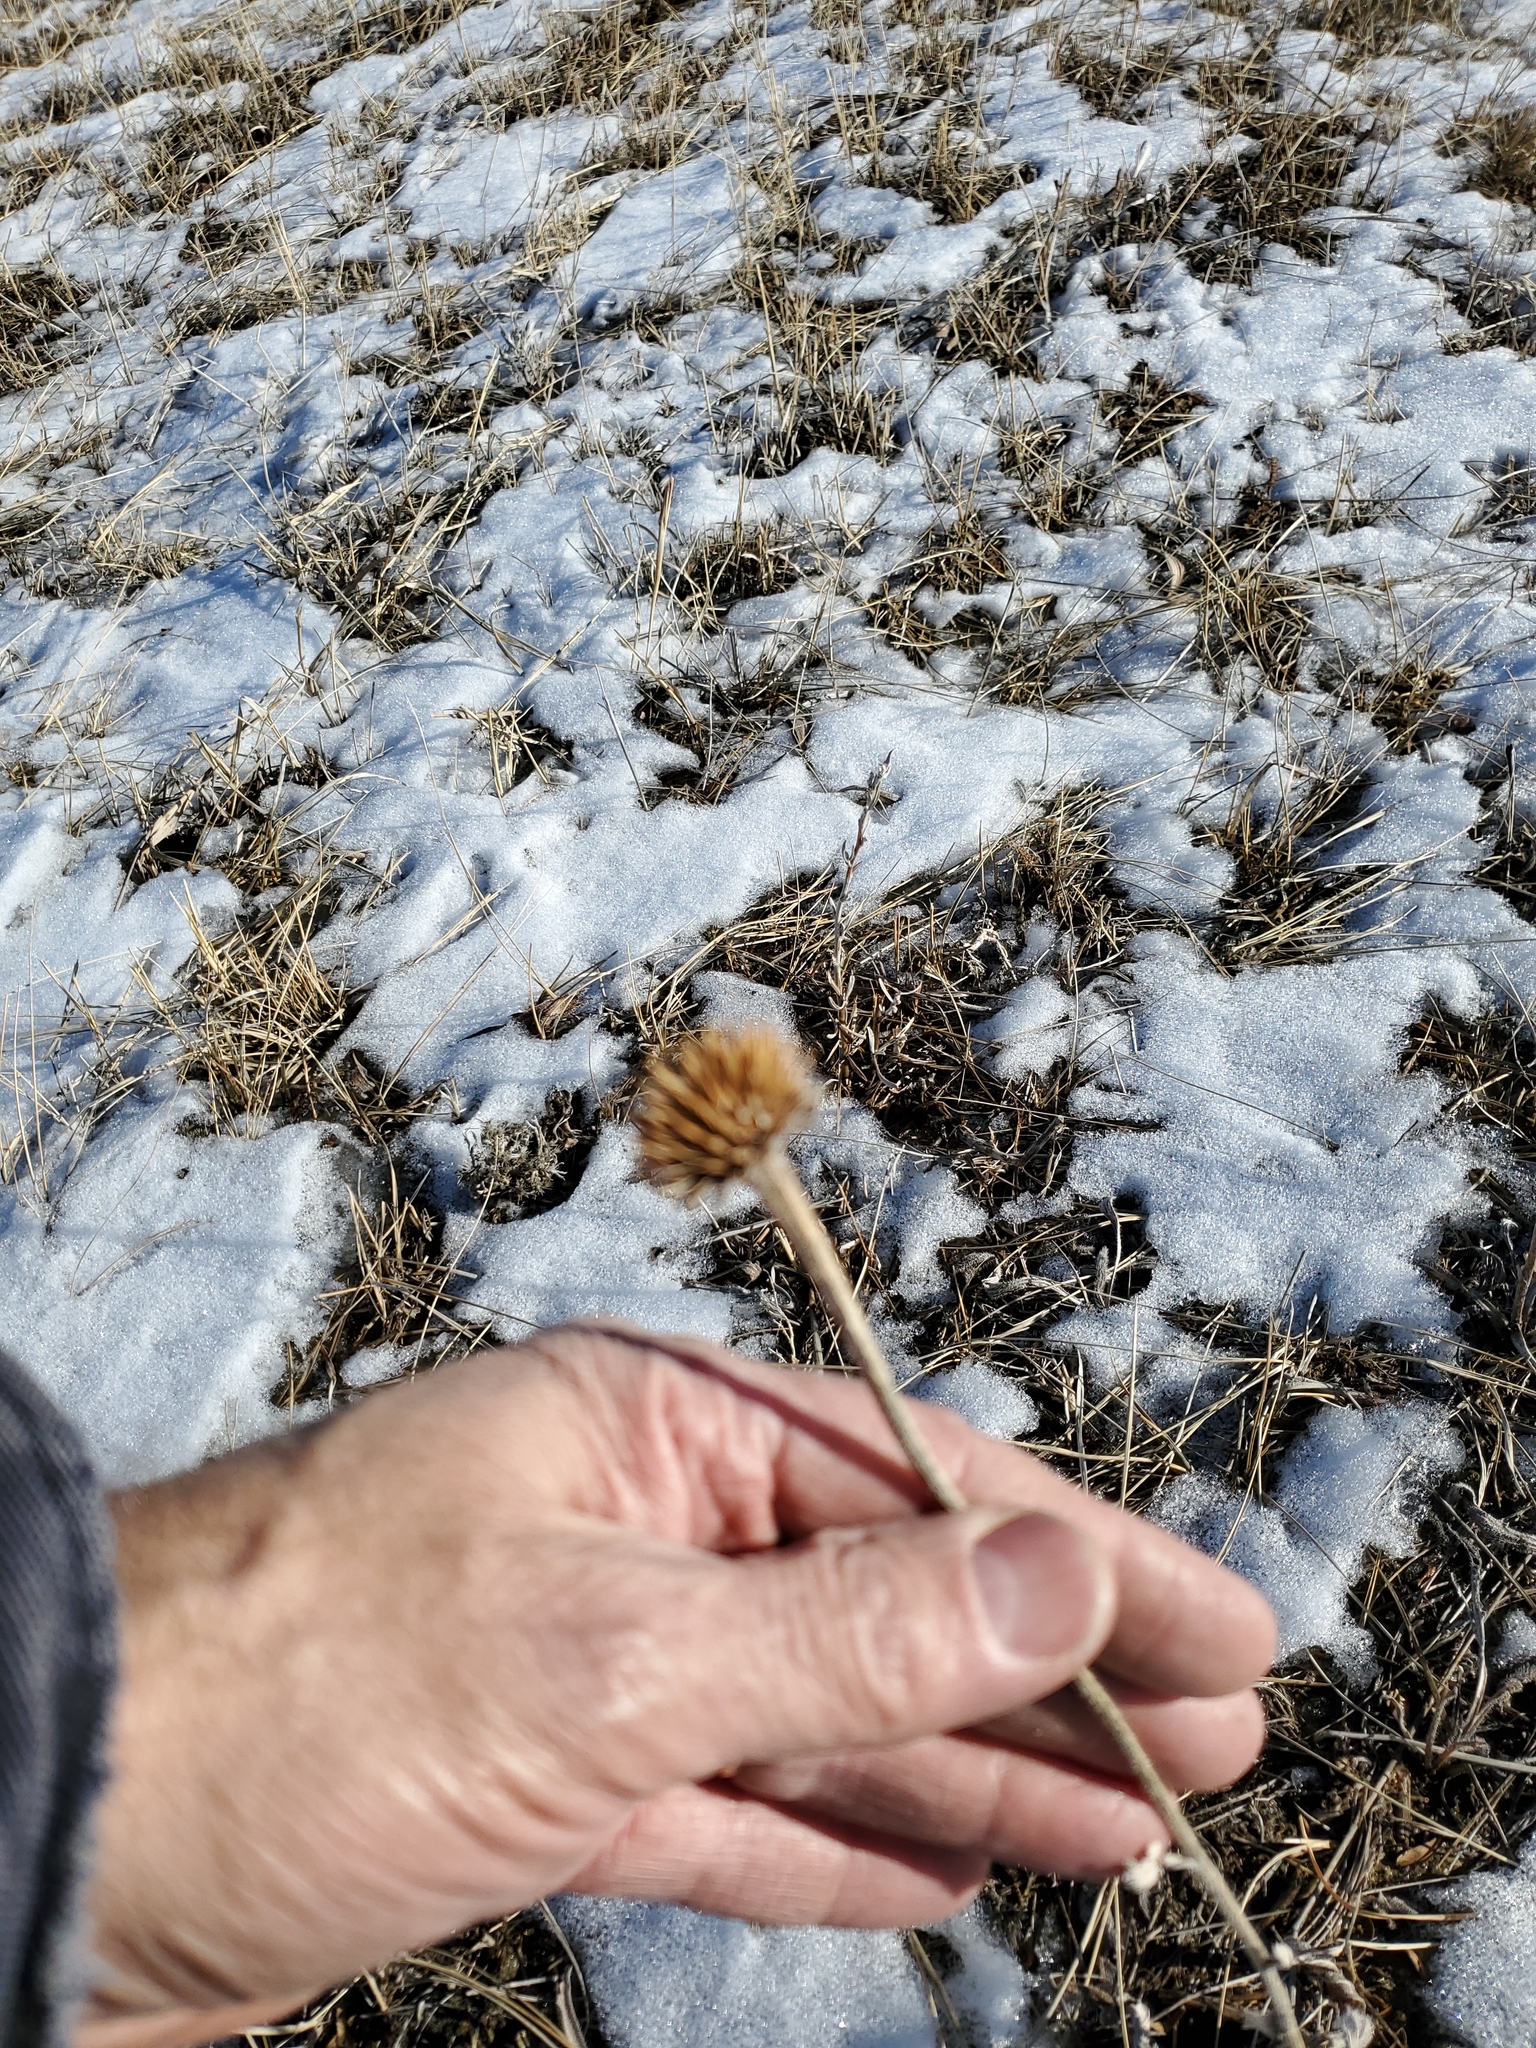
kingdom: Plantae
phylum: Tracheophyta
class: Magnoliopsida
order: Asterales
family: Asteraceae
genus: Echinacea
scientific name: Echinacea angustifolia
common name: Black-sampson echinacea
